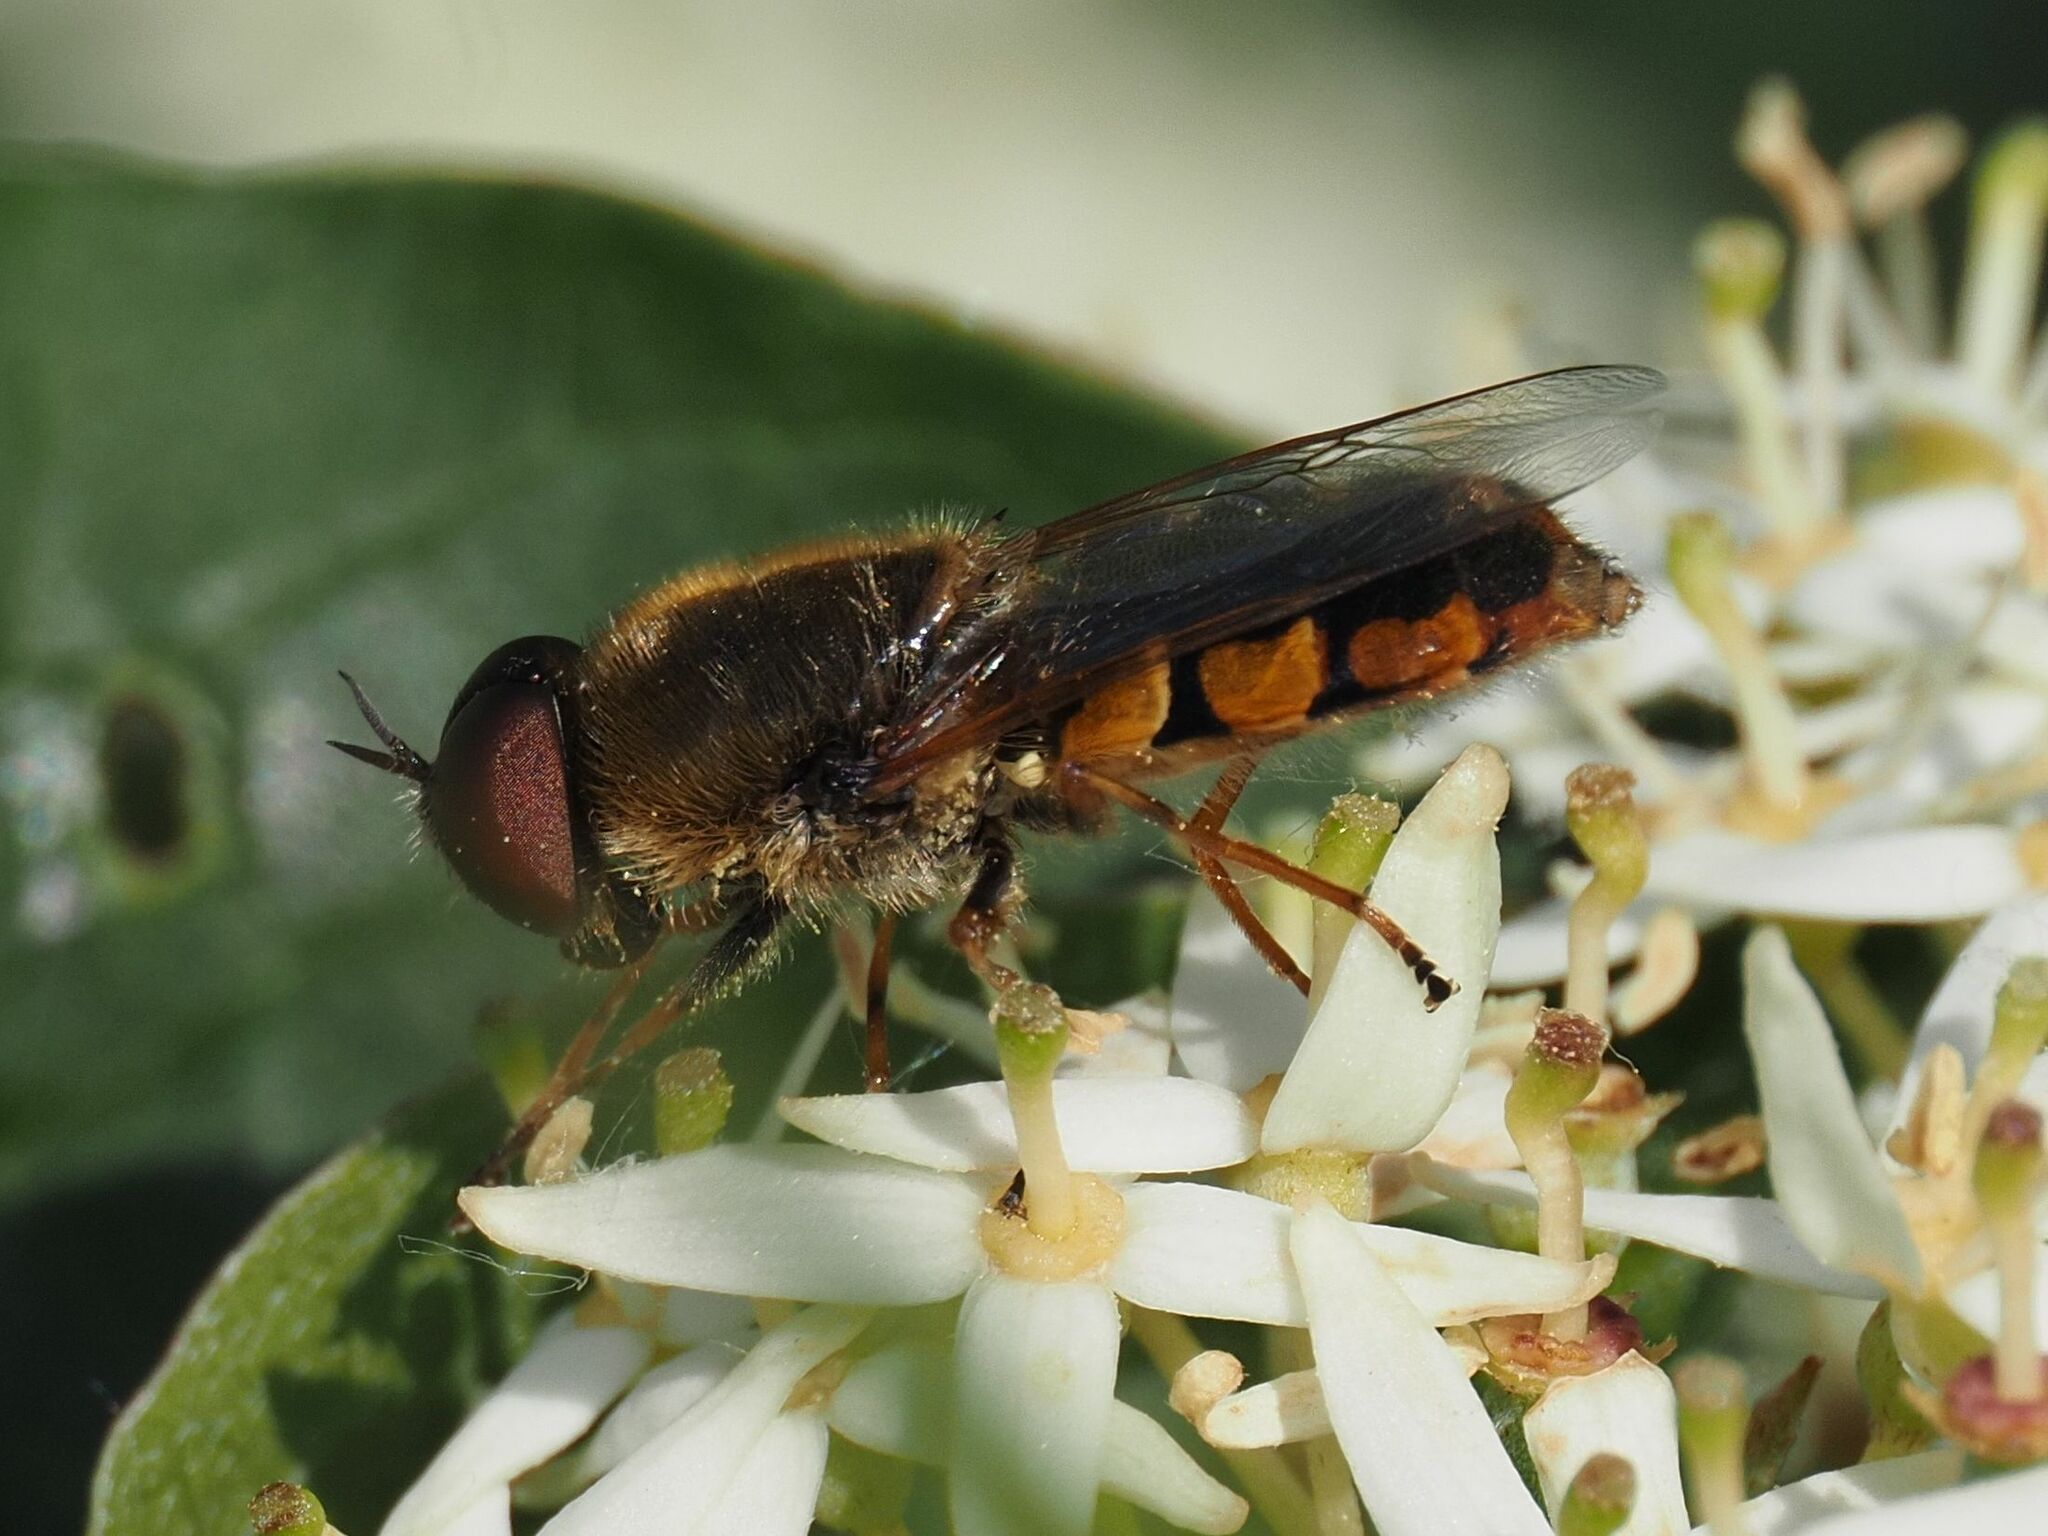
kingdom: Animalia
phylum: Arthropoda
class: Insecta
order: Diptera
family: Stratiomyidae
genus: Odontomyia
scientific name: Odontomyia ornata
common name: Ornate brigadier
